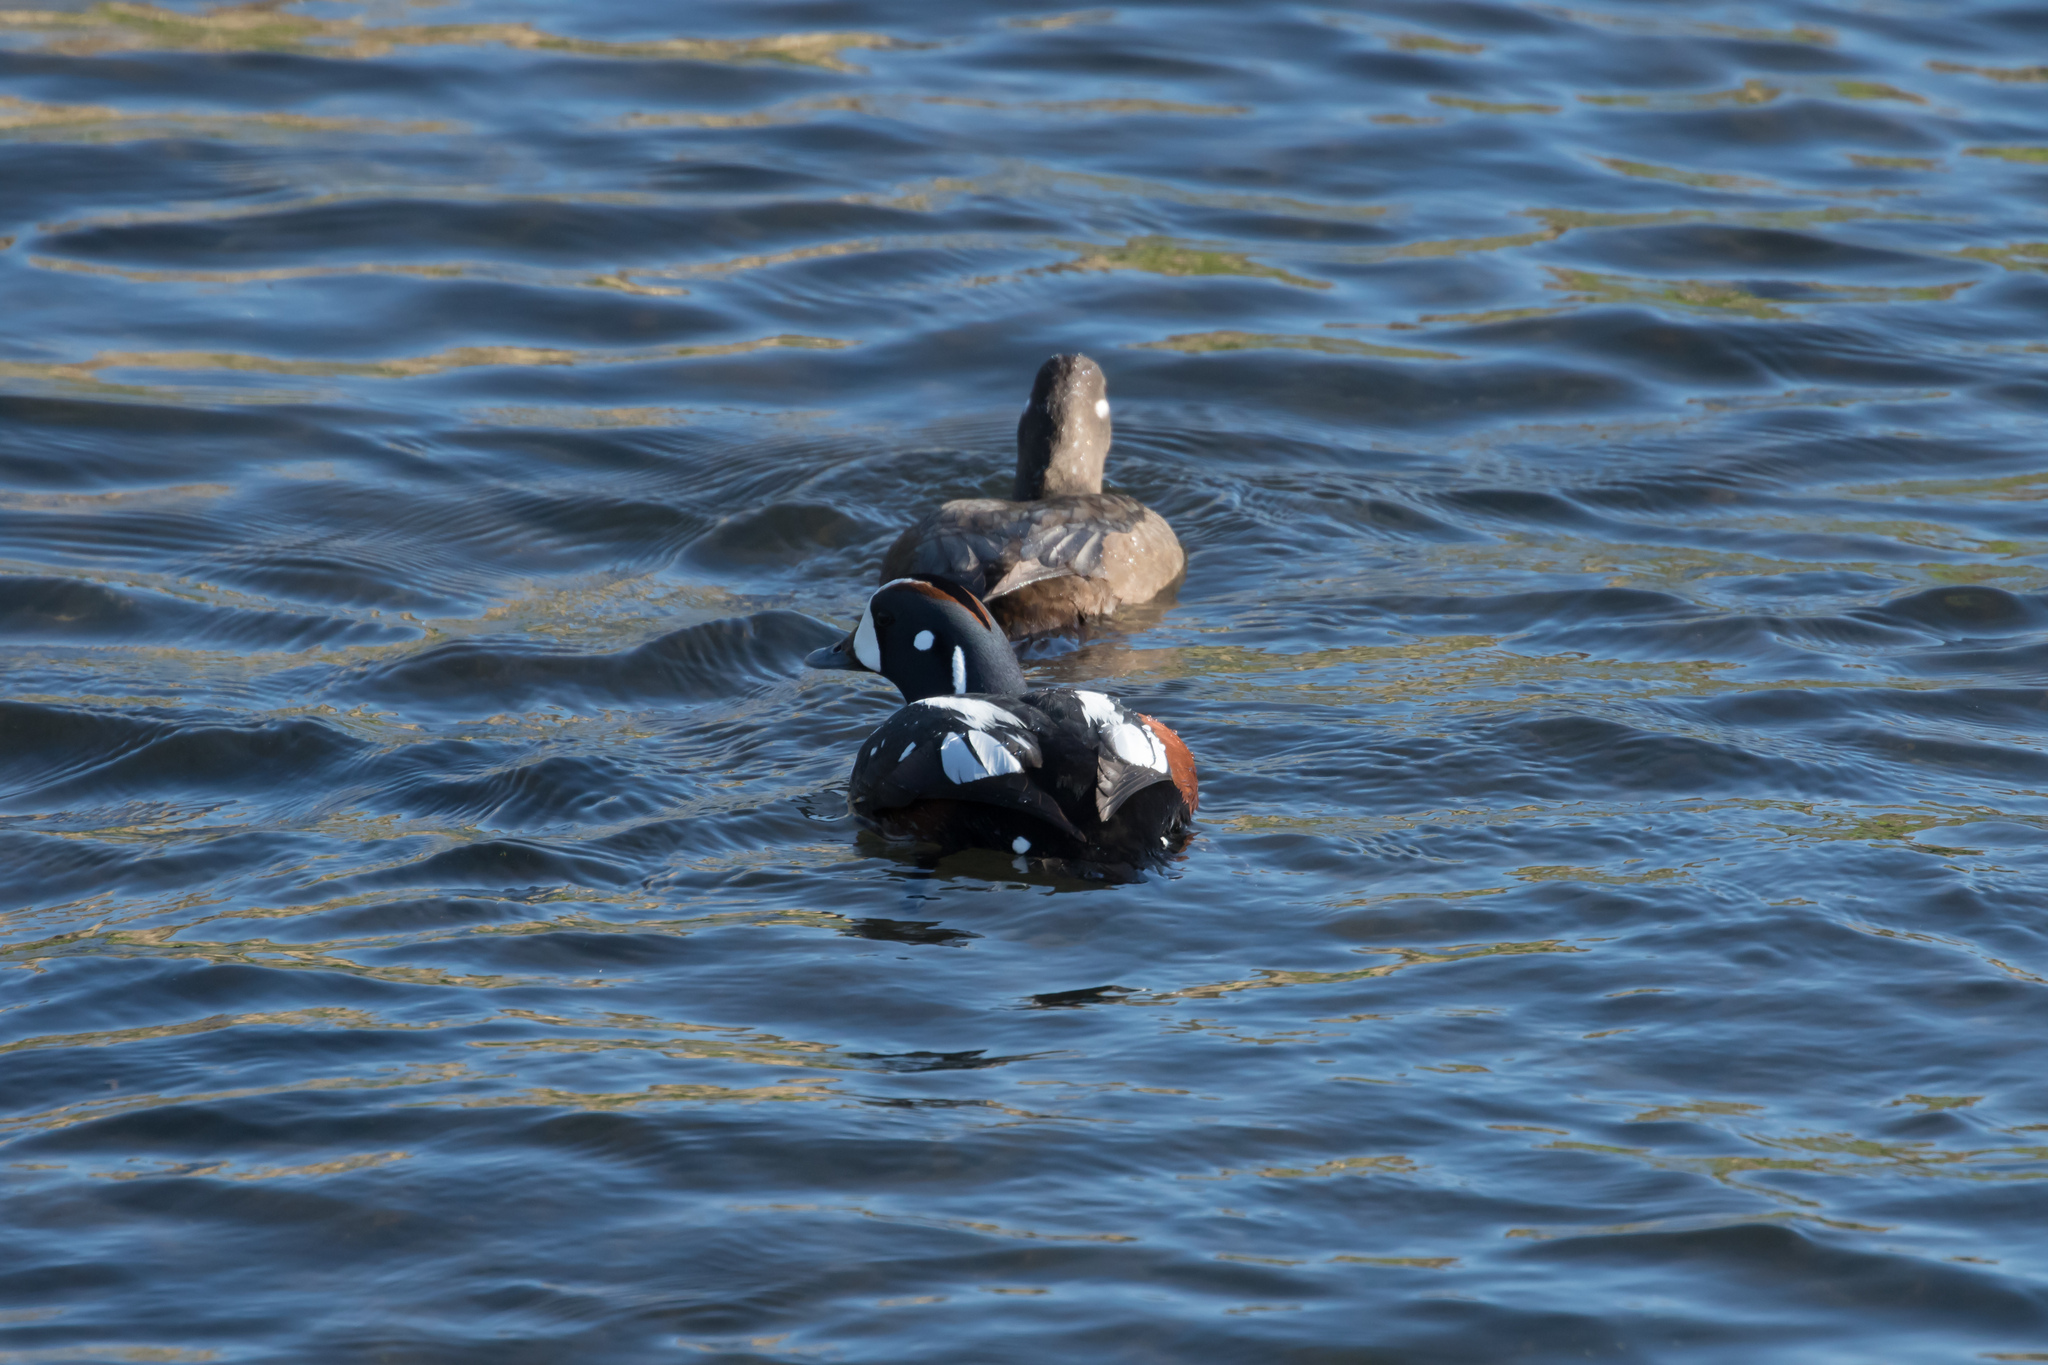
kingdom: Animalia
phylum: Chordata
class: Aves
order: Anseriformes
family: Anatidae
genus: Histrionicus
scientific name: Histrionicus histrionicus
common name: Harlequin duck
